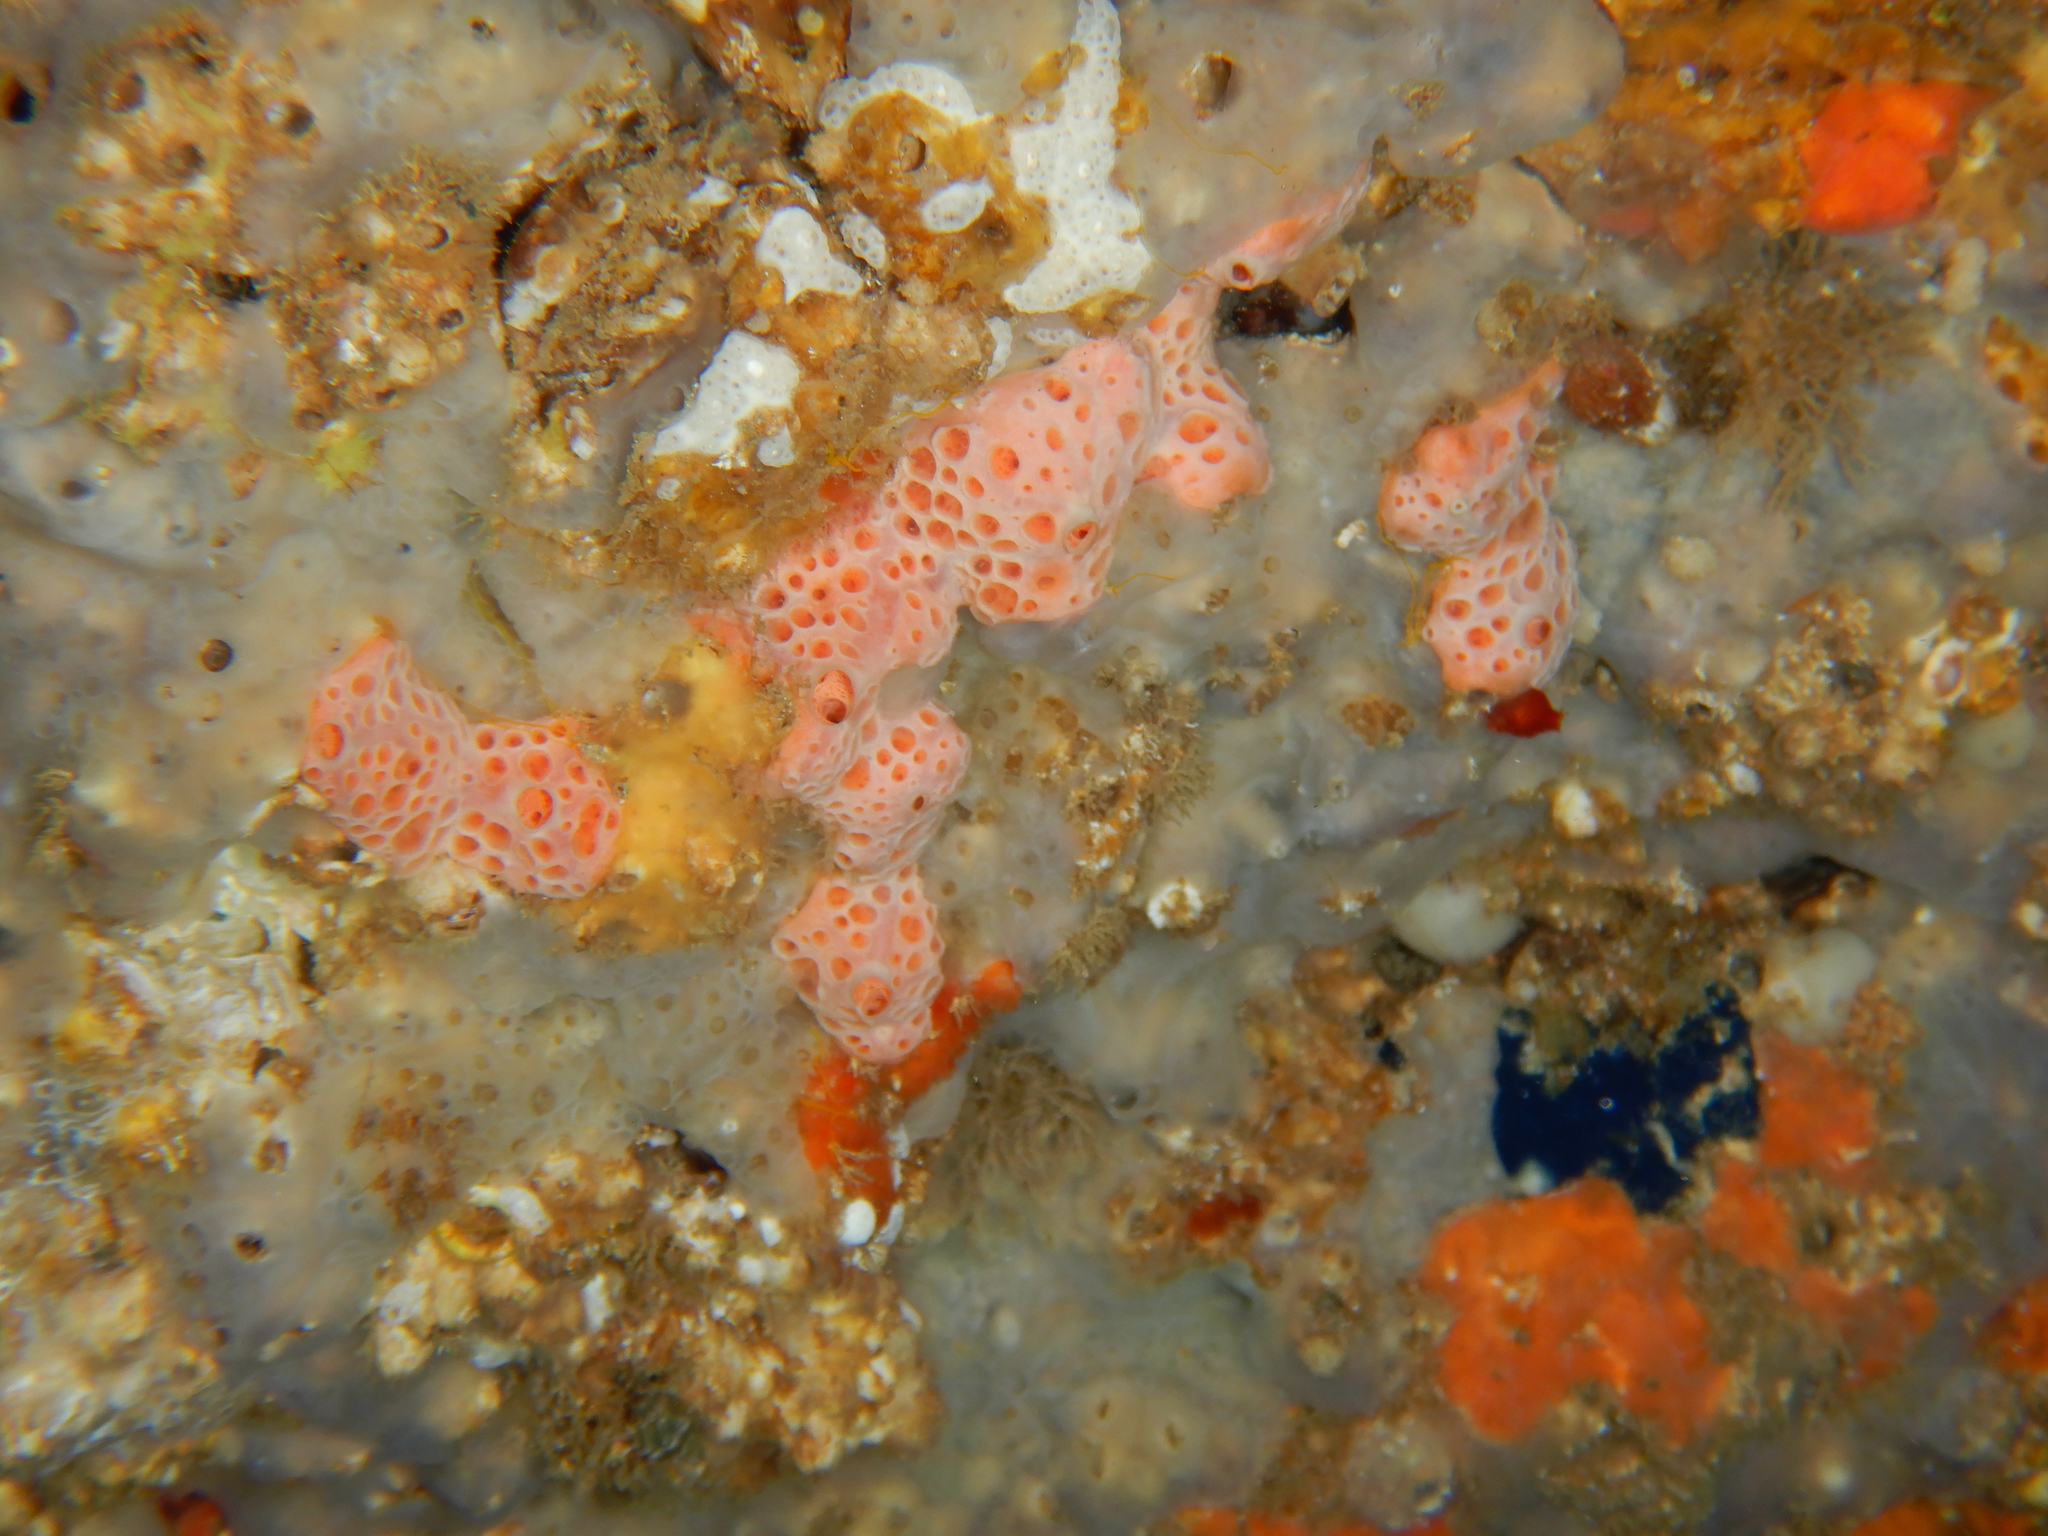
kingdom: Animalia
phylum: Porifera
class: Demospongiae
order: Poecilosclerida
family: Hymedesmiidae
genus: Hemimycale
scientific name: Hemimycale columella
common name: Crater sponge
